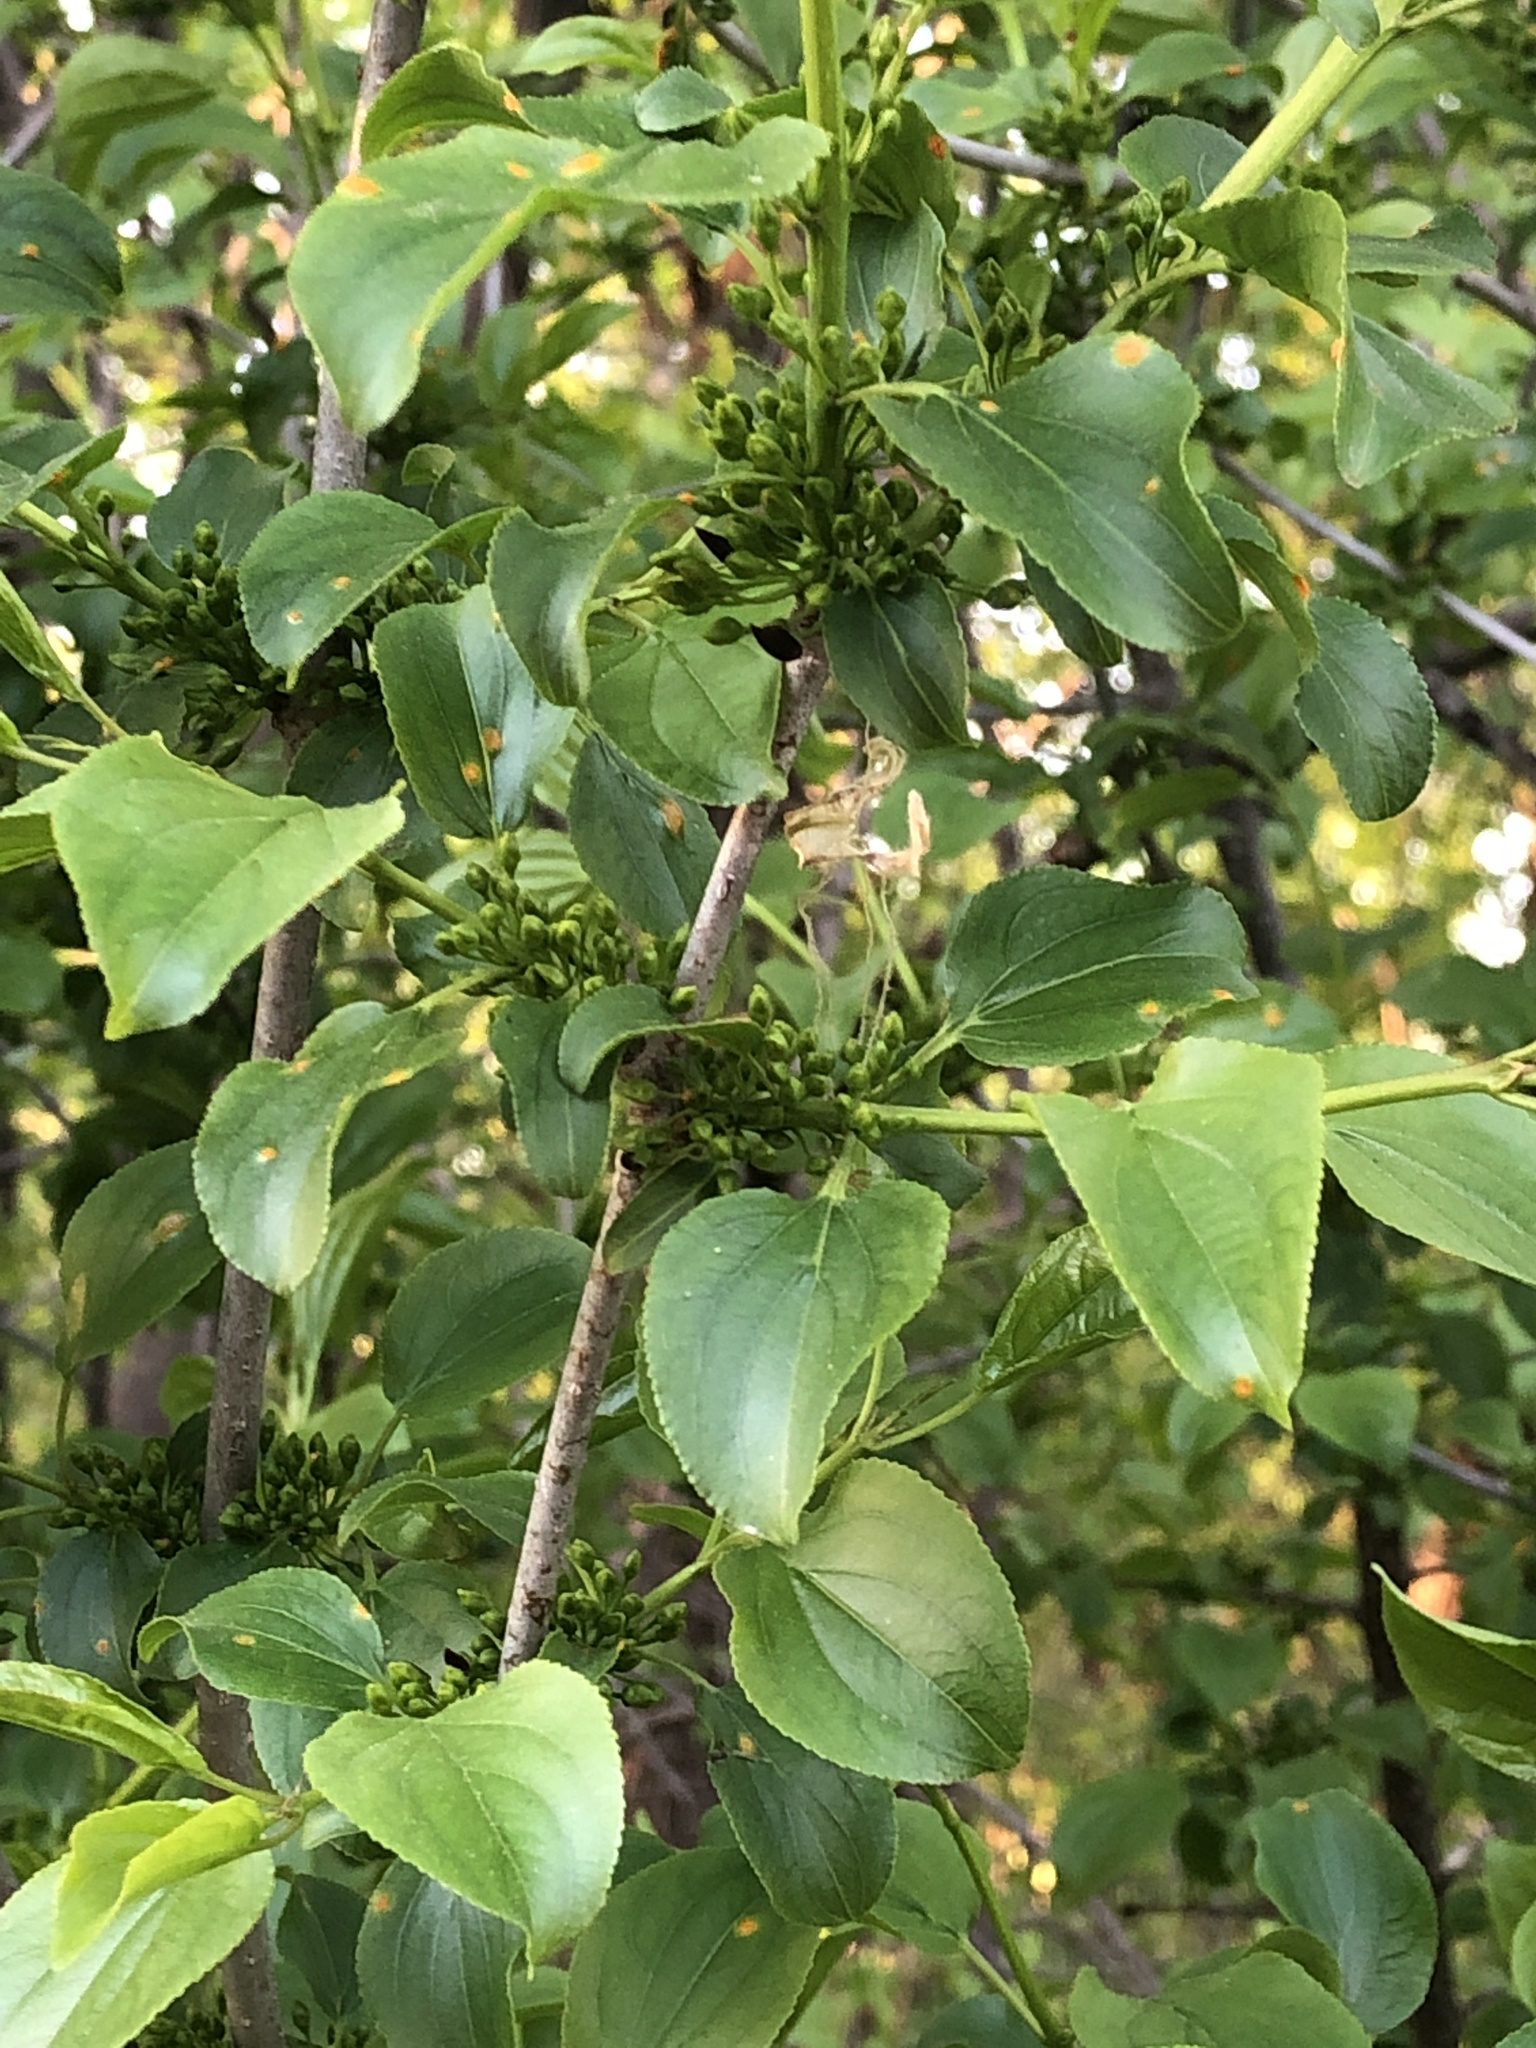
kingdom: Plantae
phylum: Tracheophyta
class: Magnoliopsida
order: Rosales
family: Rhamnaceae
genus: Rhamnus
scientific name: Rhamnus cathartica
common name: Common buckthorn
